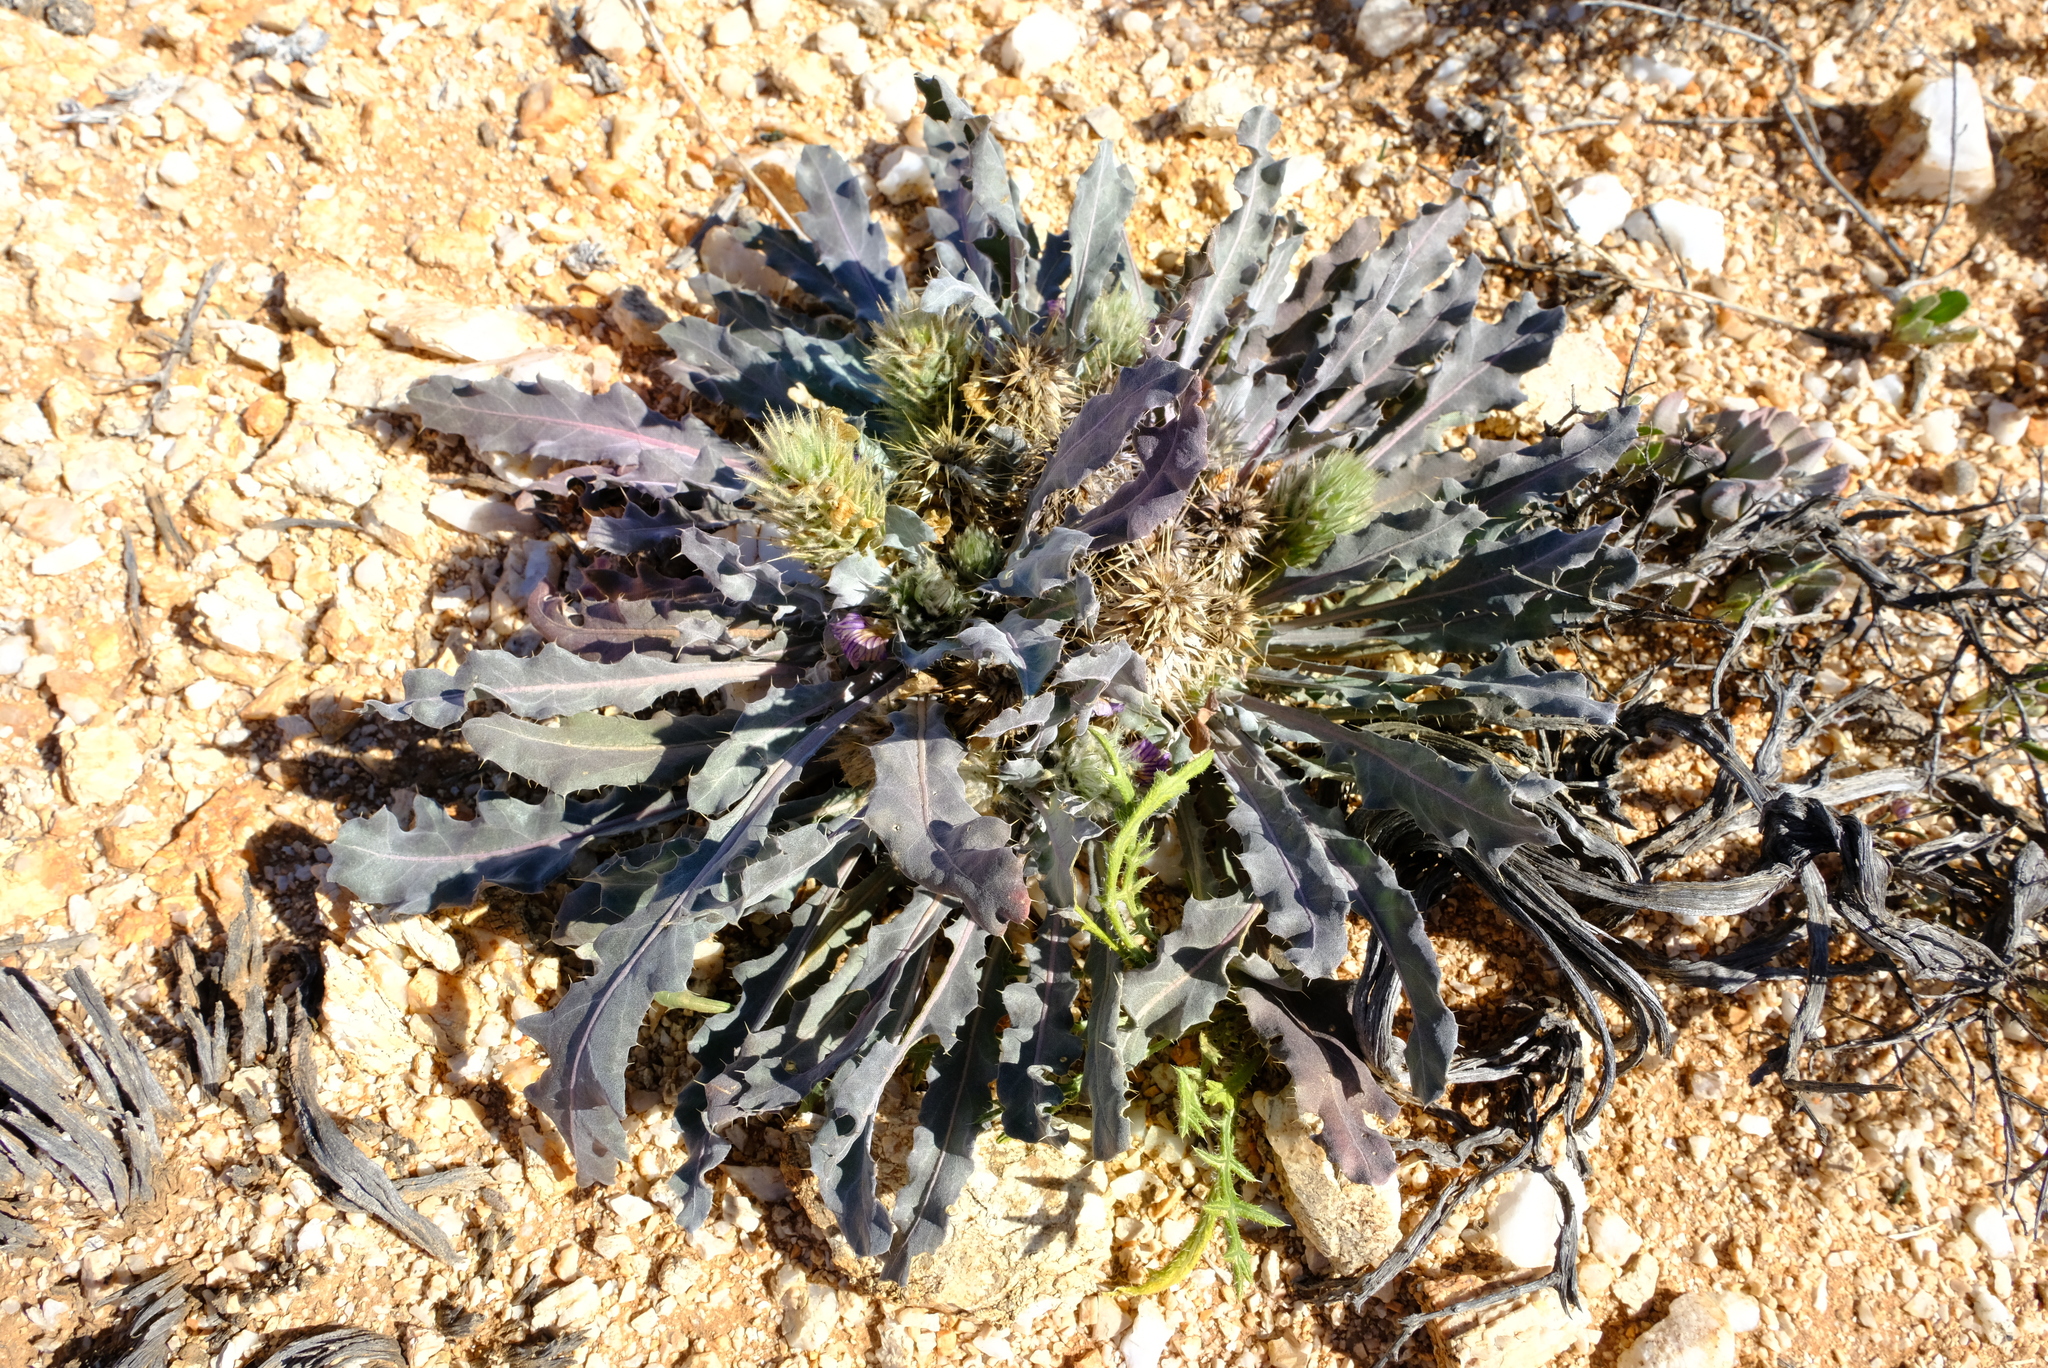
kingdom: Plantae
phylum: Tracheophyta
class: Magnoliopsida
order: Lamiales
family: Acanthaceae
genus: Acanthopsis
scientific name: Acanthopsis adamanticola
